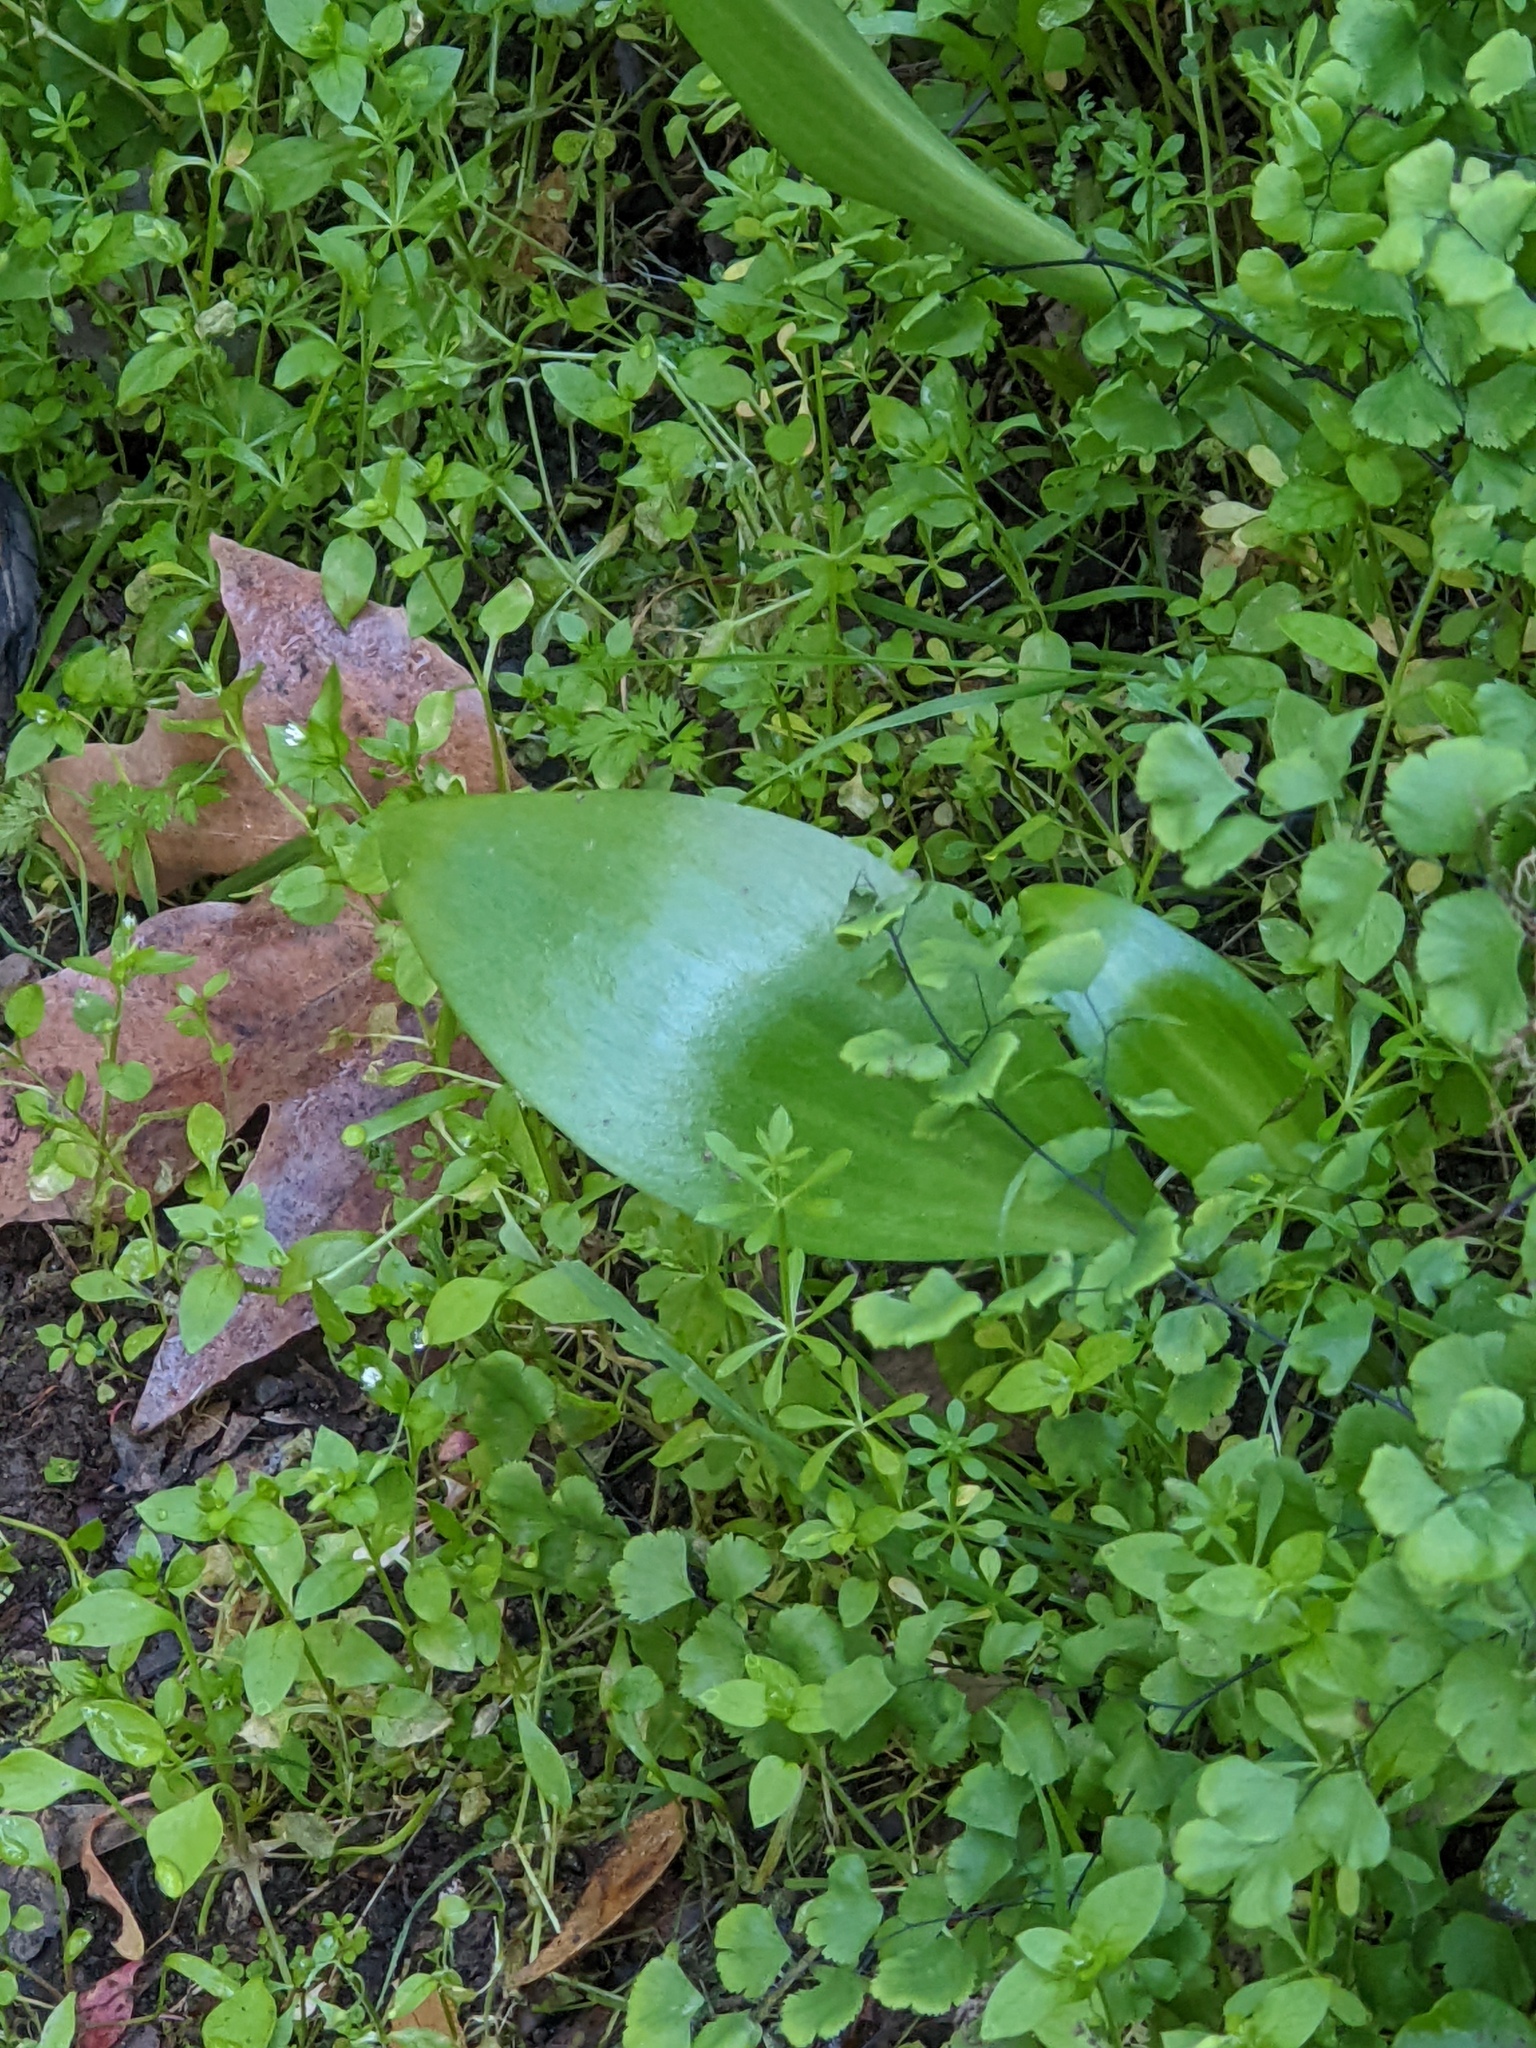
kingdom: Plantae
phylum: Tracheophyta
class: Liliopsida
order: Liliales
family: Liliaceae
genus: Fritillaria
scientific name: Fritillaria affinis
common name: Ojai fritillary
